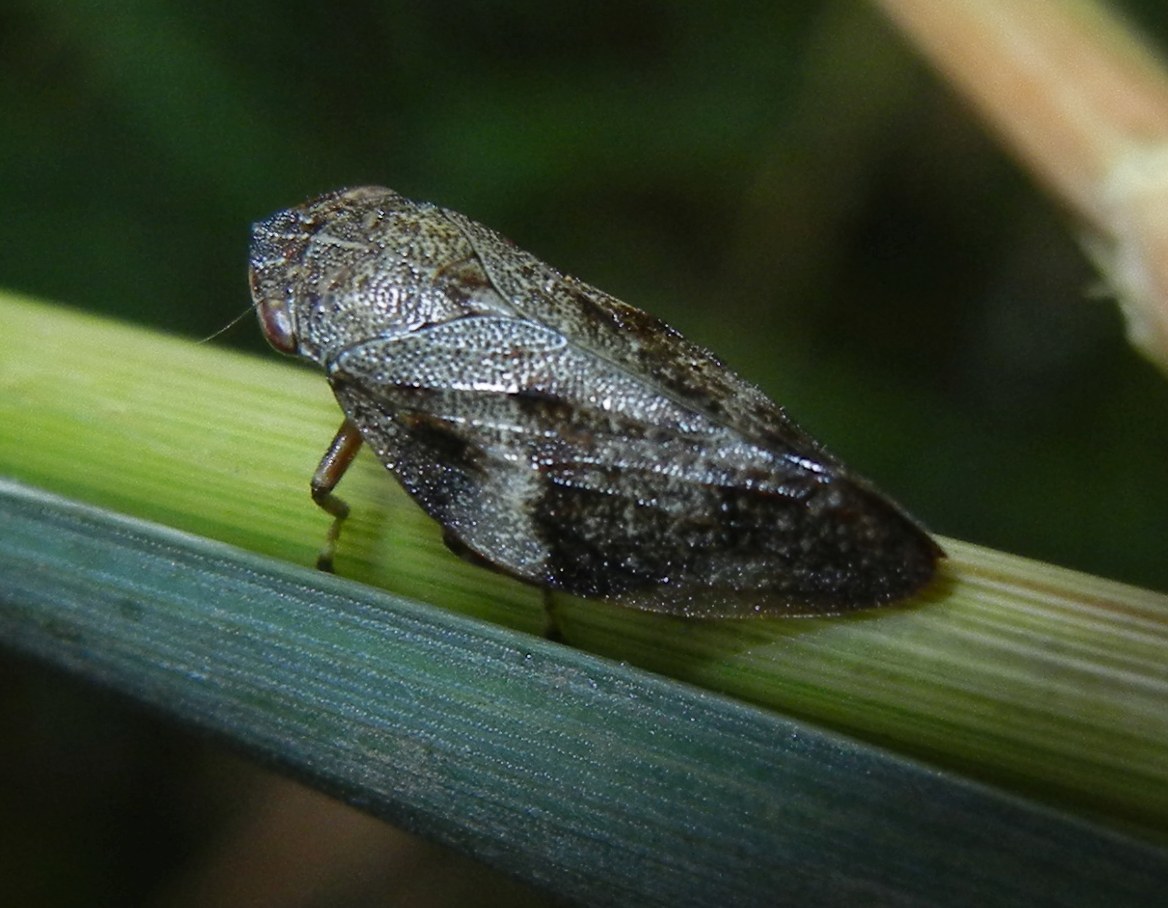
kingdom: Animalia
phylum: Arthropoda
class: Insecta
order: Hemiptera
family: Aphrophoridae
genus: Aphrophora
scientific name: Aphrophora alni
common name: European alder spittlebug
